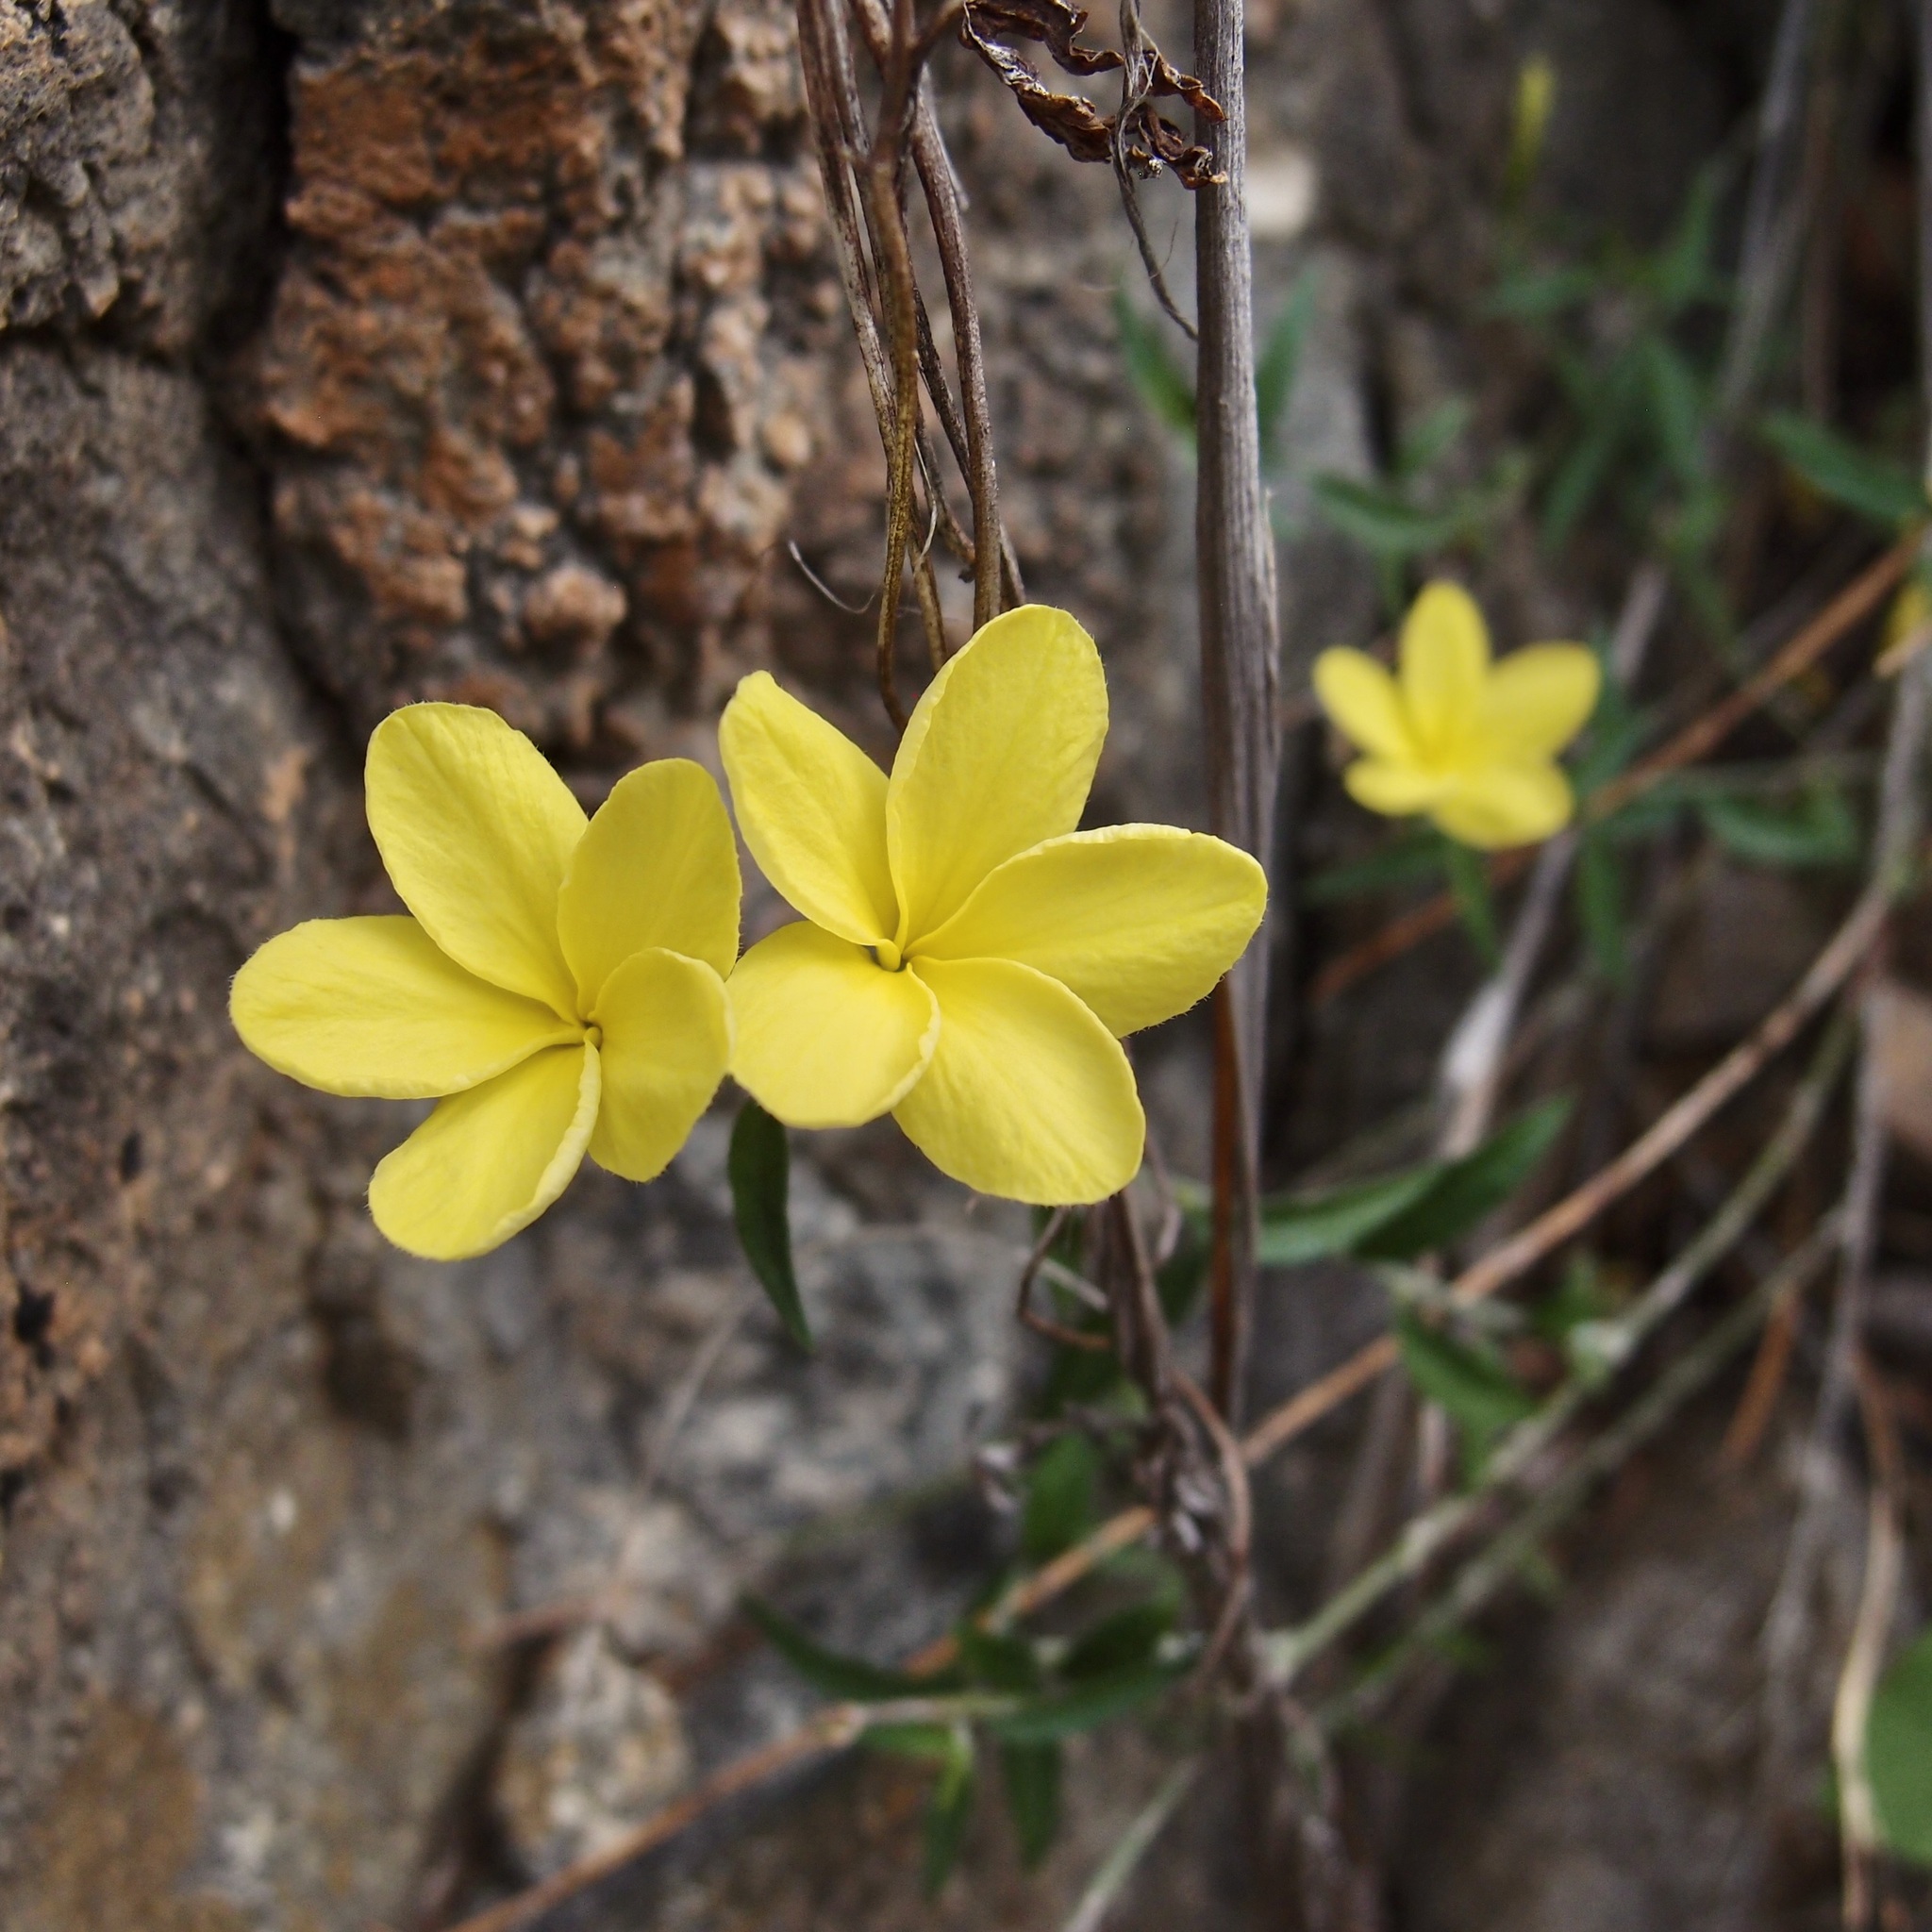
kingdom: Plantae
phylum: Tracheophyta
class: Magnoliopsida
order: Gentianales
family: Apocynaceae
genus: Haplophyton
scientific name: Haplophyton crooksii
